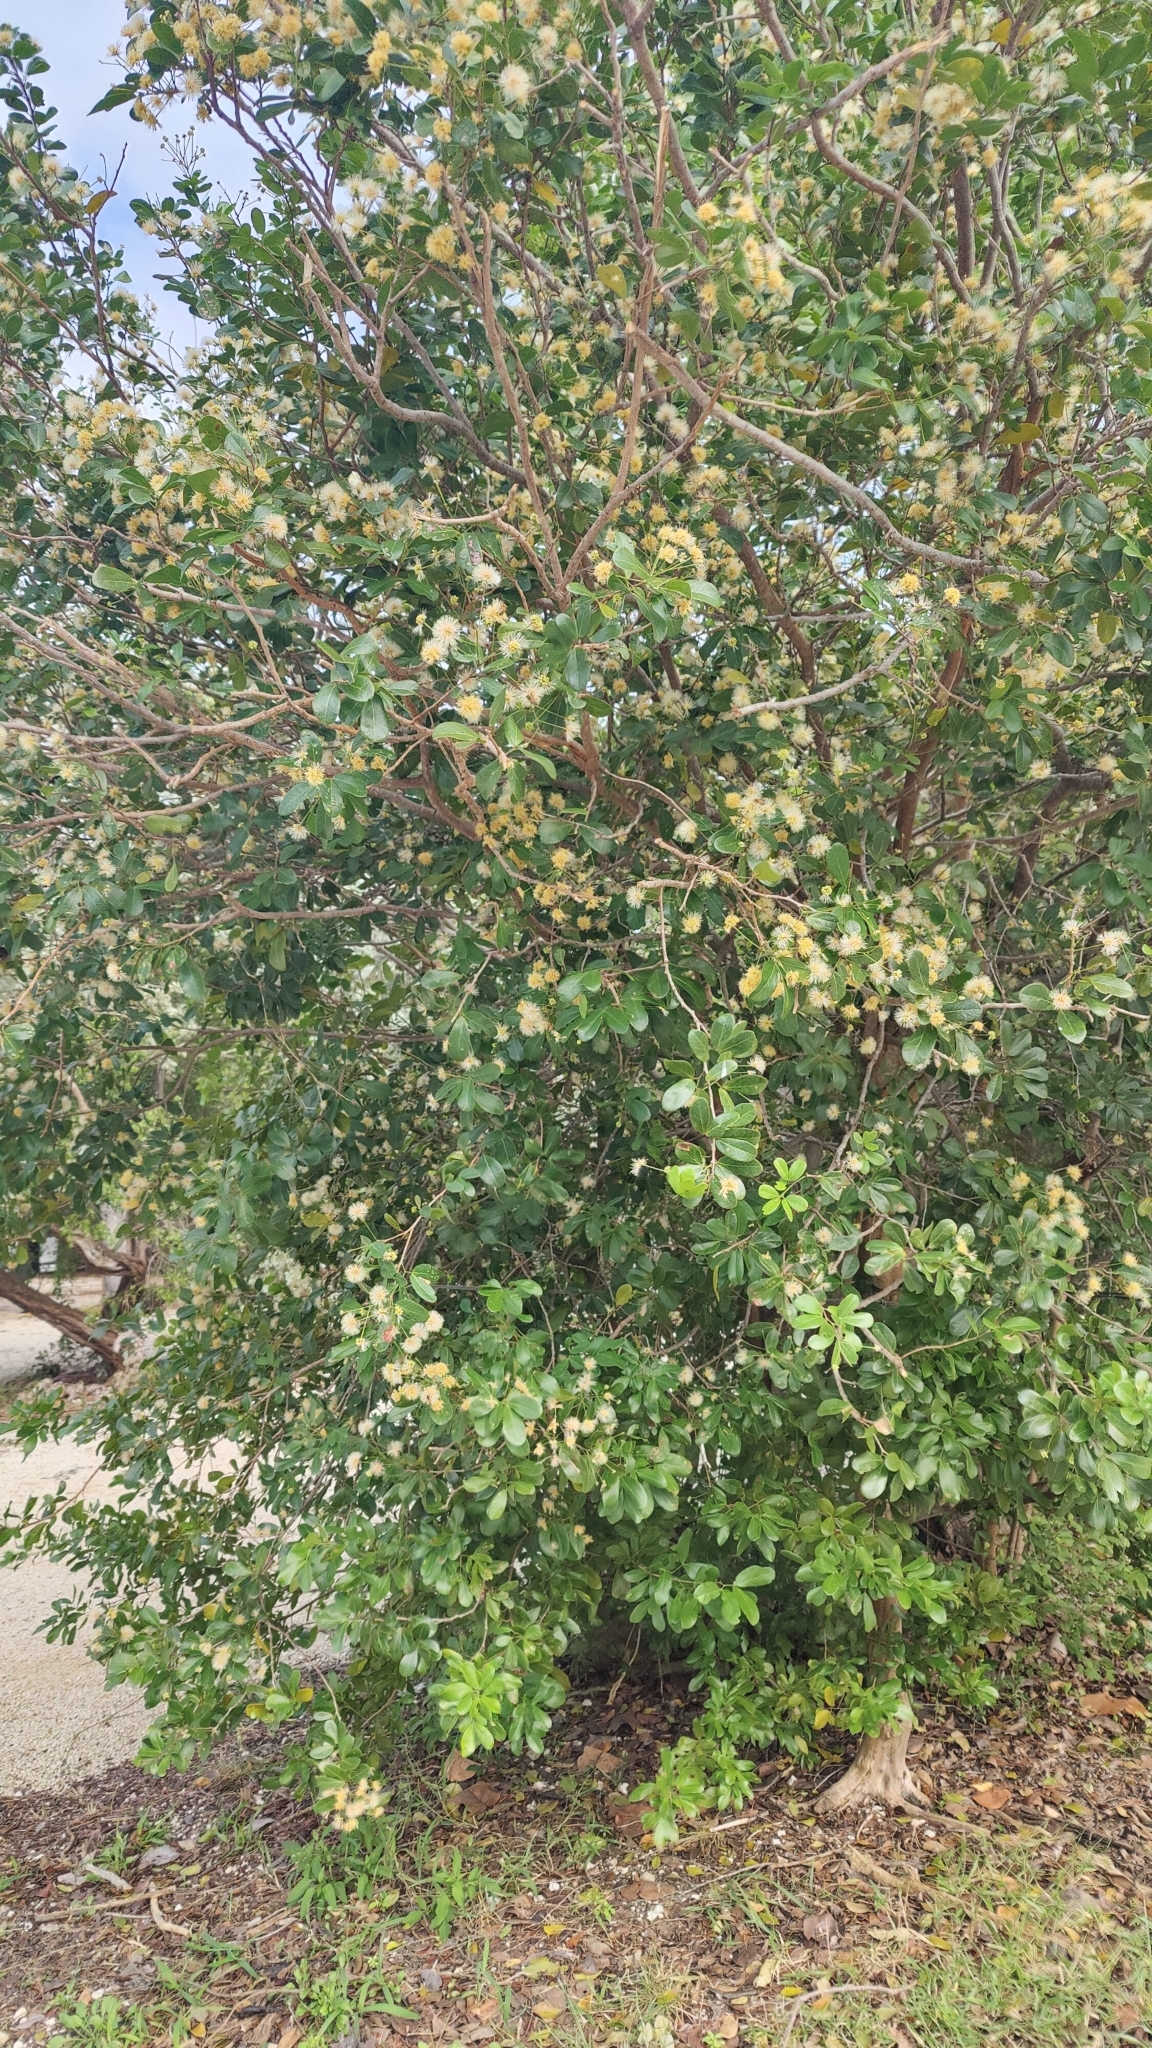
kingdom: Plantae
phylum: Tracheophyta
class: Magnoliopsida
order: Fabales
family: Fabaceae
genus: Pithecellobium
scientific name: Pithecellobium keyense
